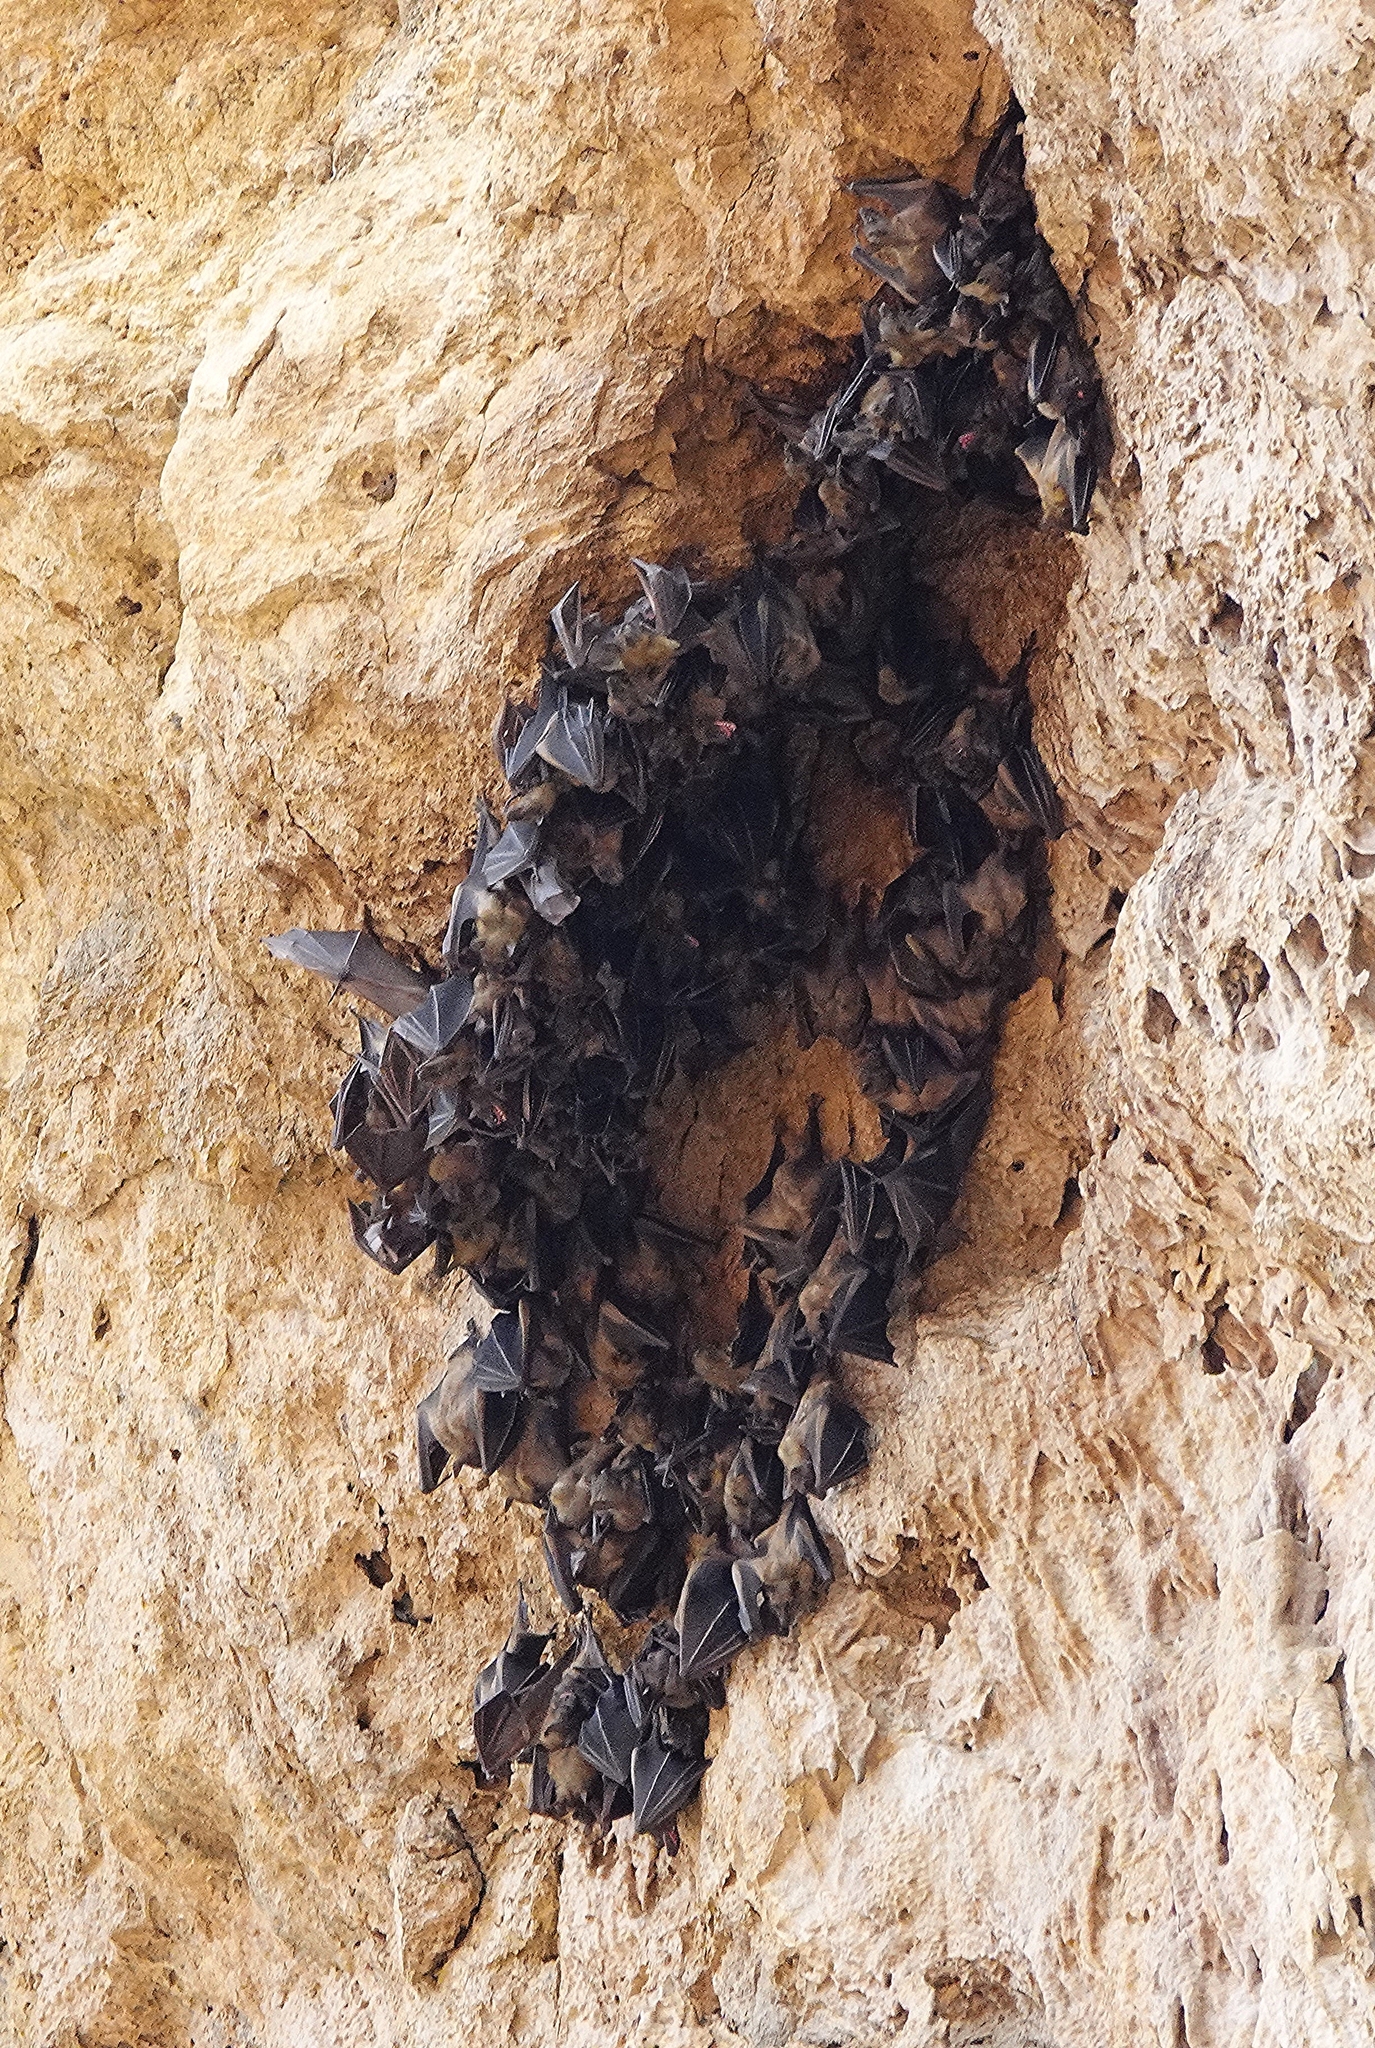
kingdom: Animalia
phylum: Chordata
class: Mammalia
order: Chiroptera
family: Pteropodidae
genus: Eidolon
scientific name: Eidolon dupreanum
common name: Madagascan fruit bat
